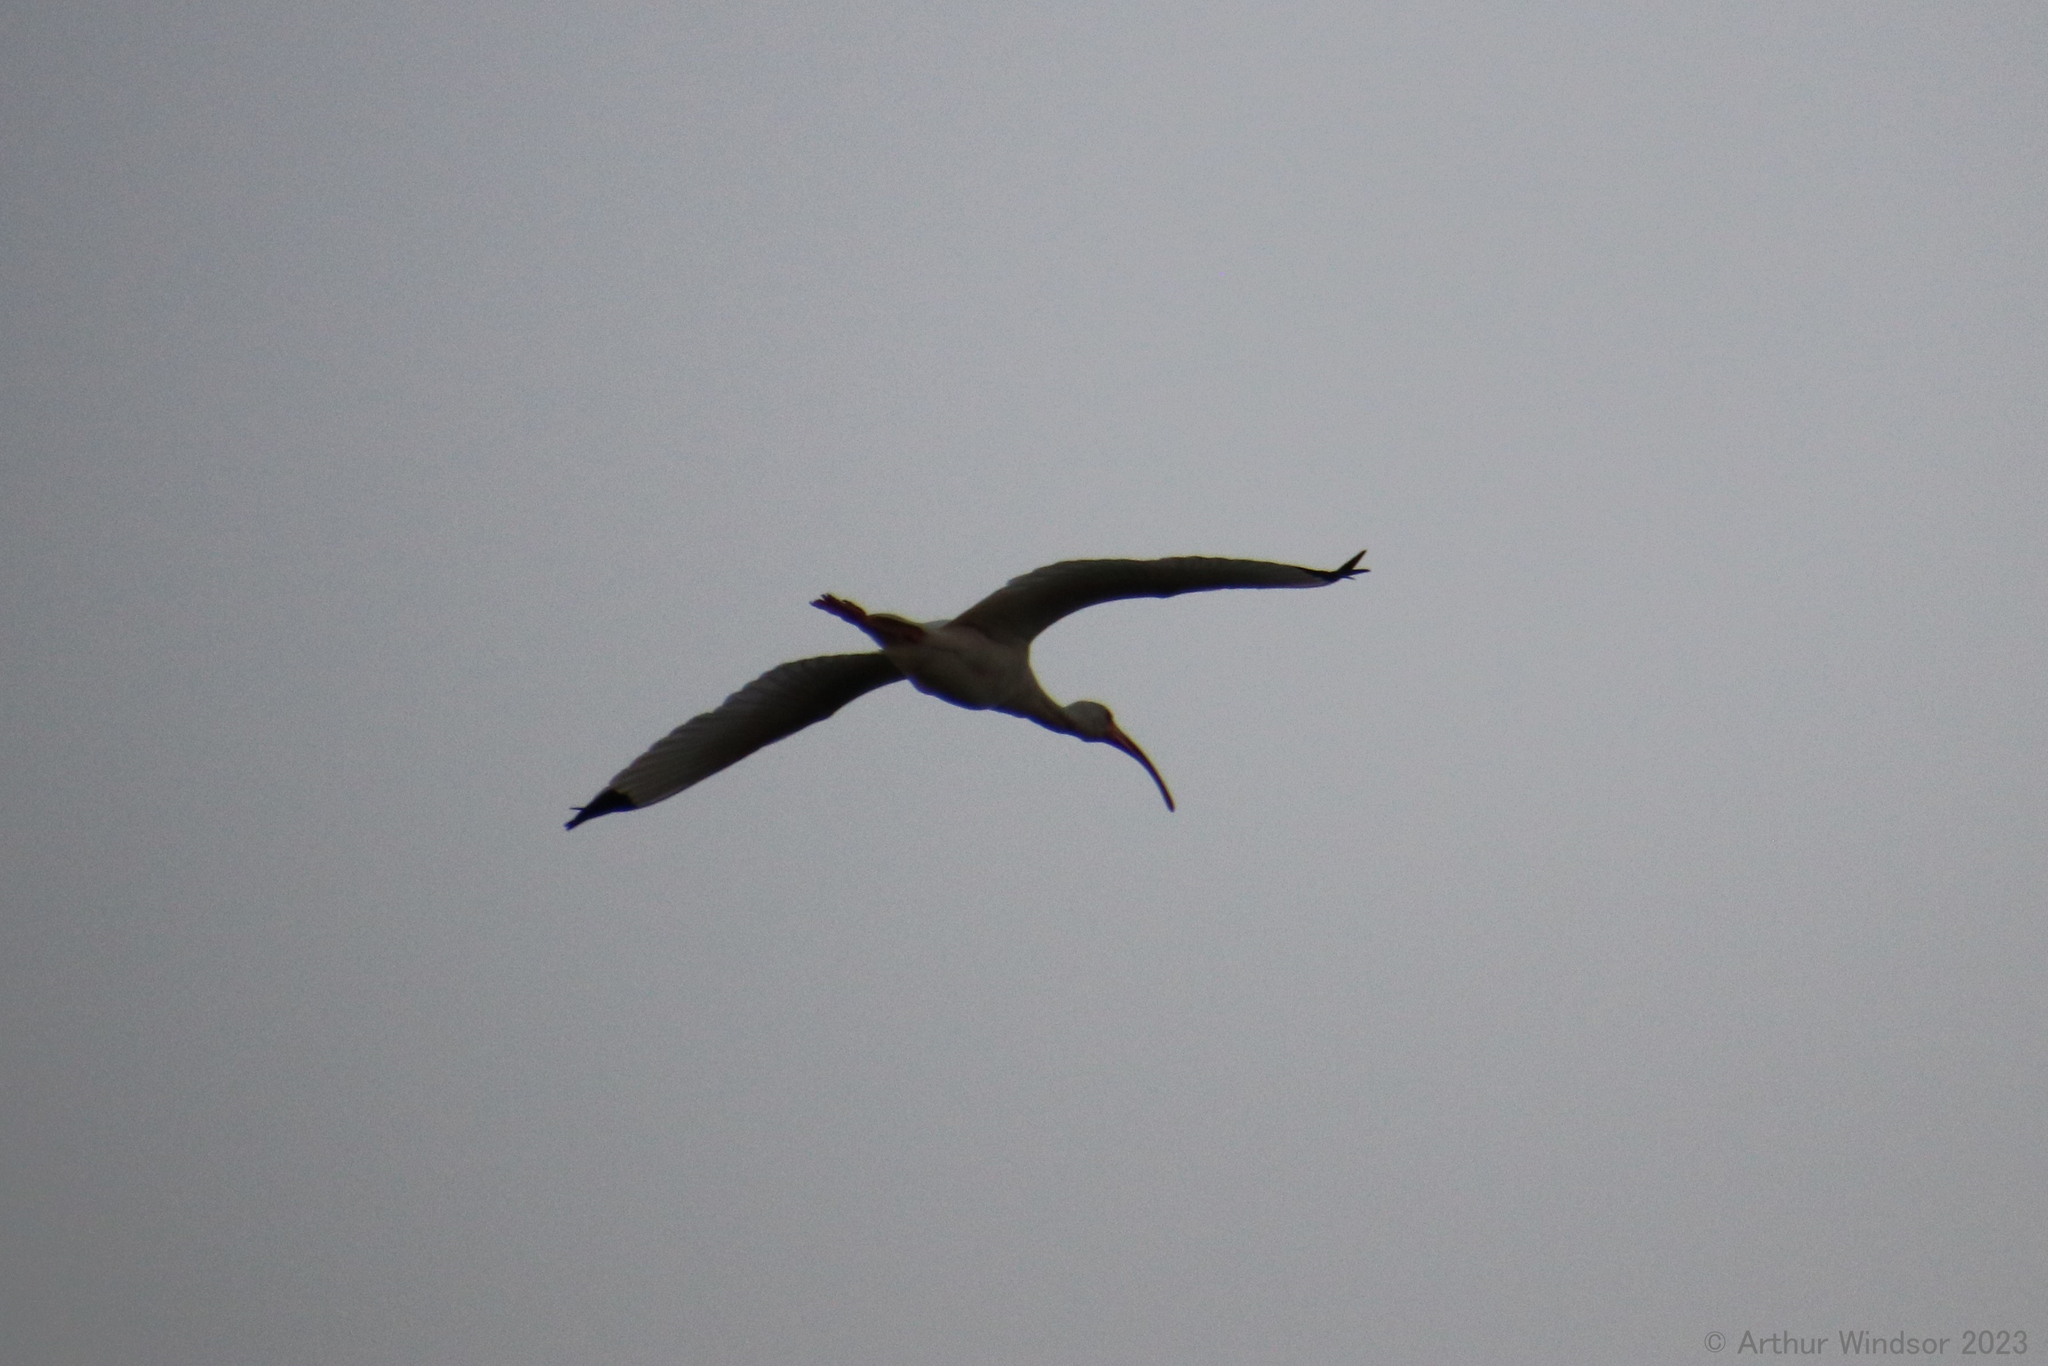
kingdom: Animalia
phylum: Chordata
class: Aves
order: Pelecaniformes
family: Threskiornithidae
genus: Eudocimus
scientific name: Eudocimus albus
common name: White ibis
